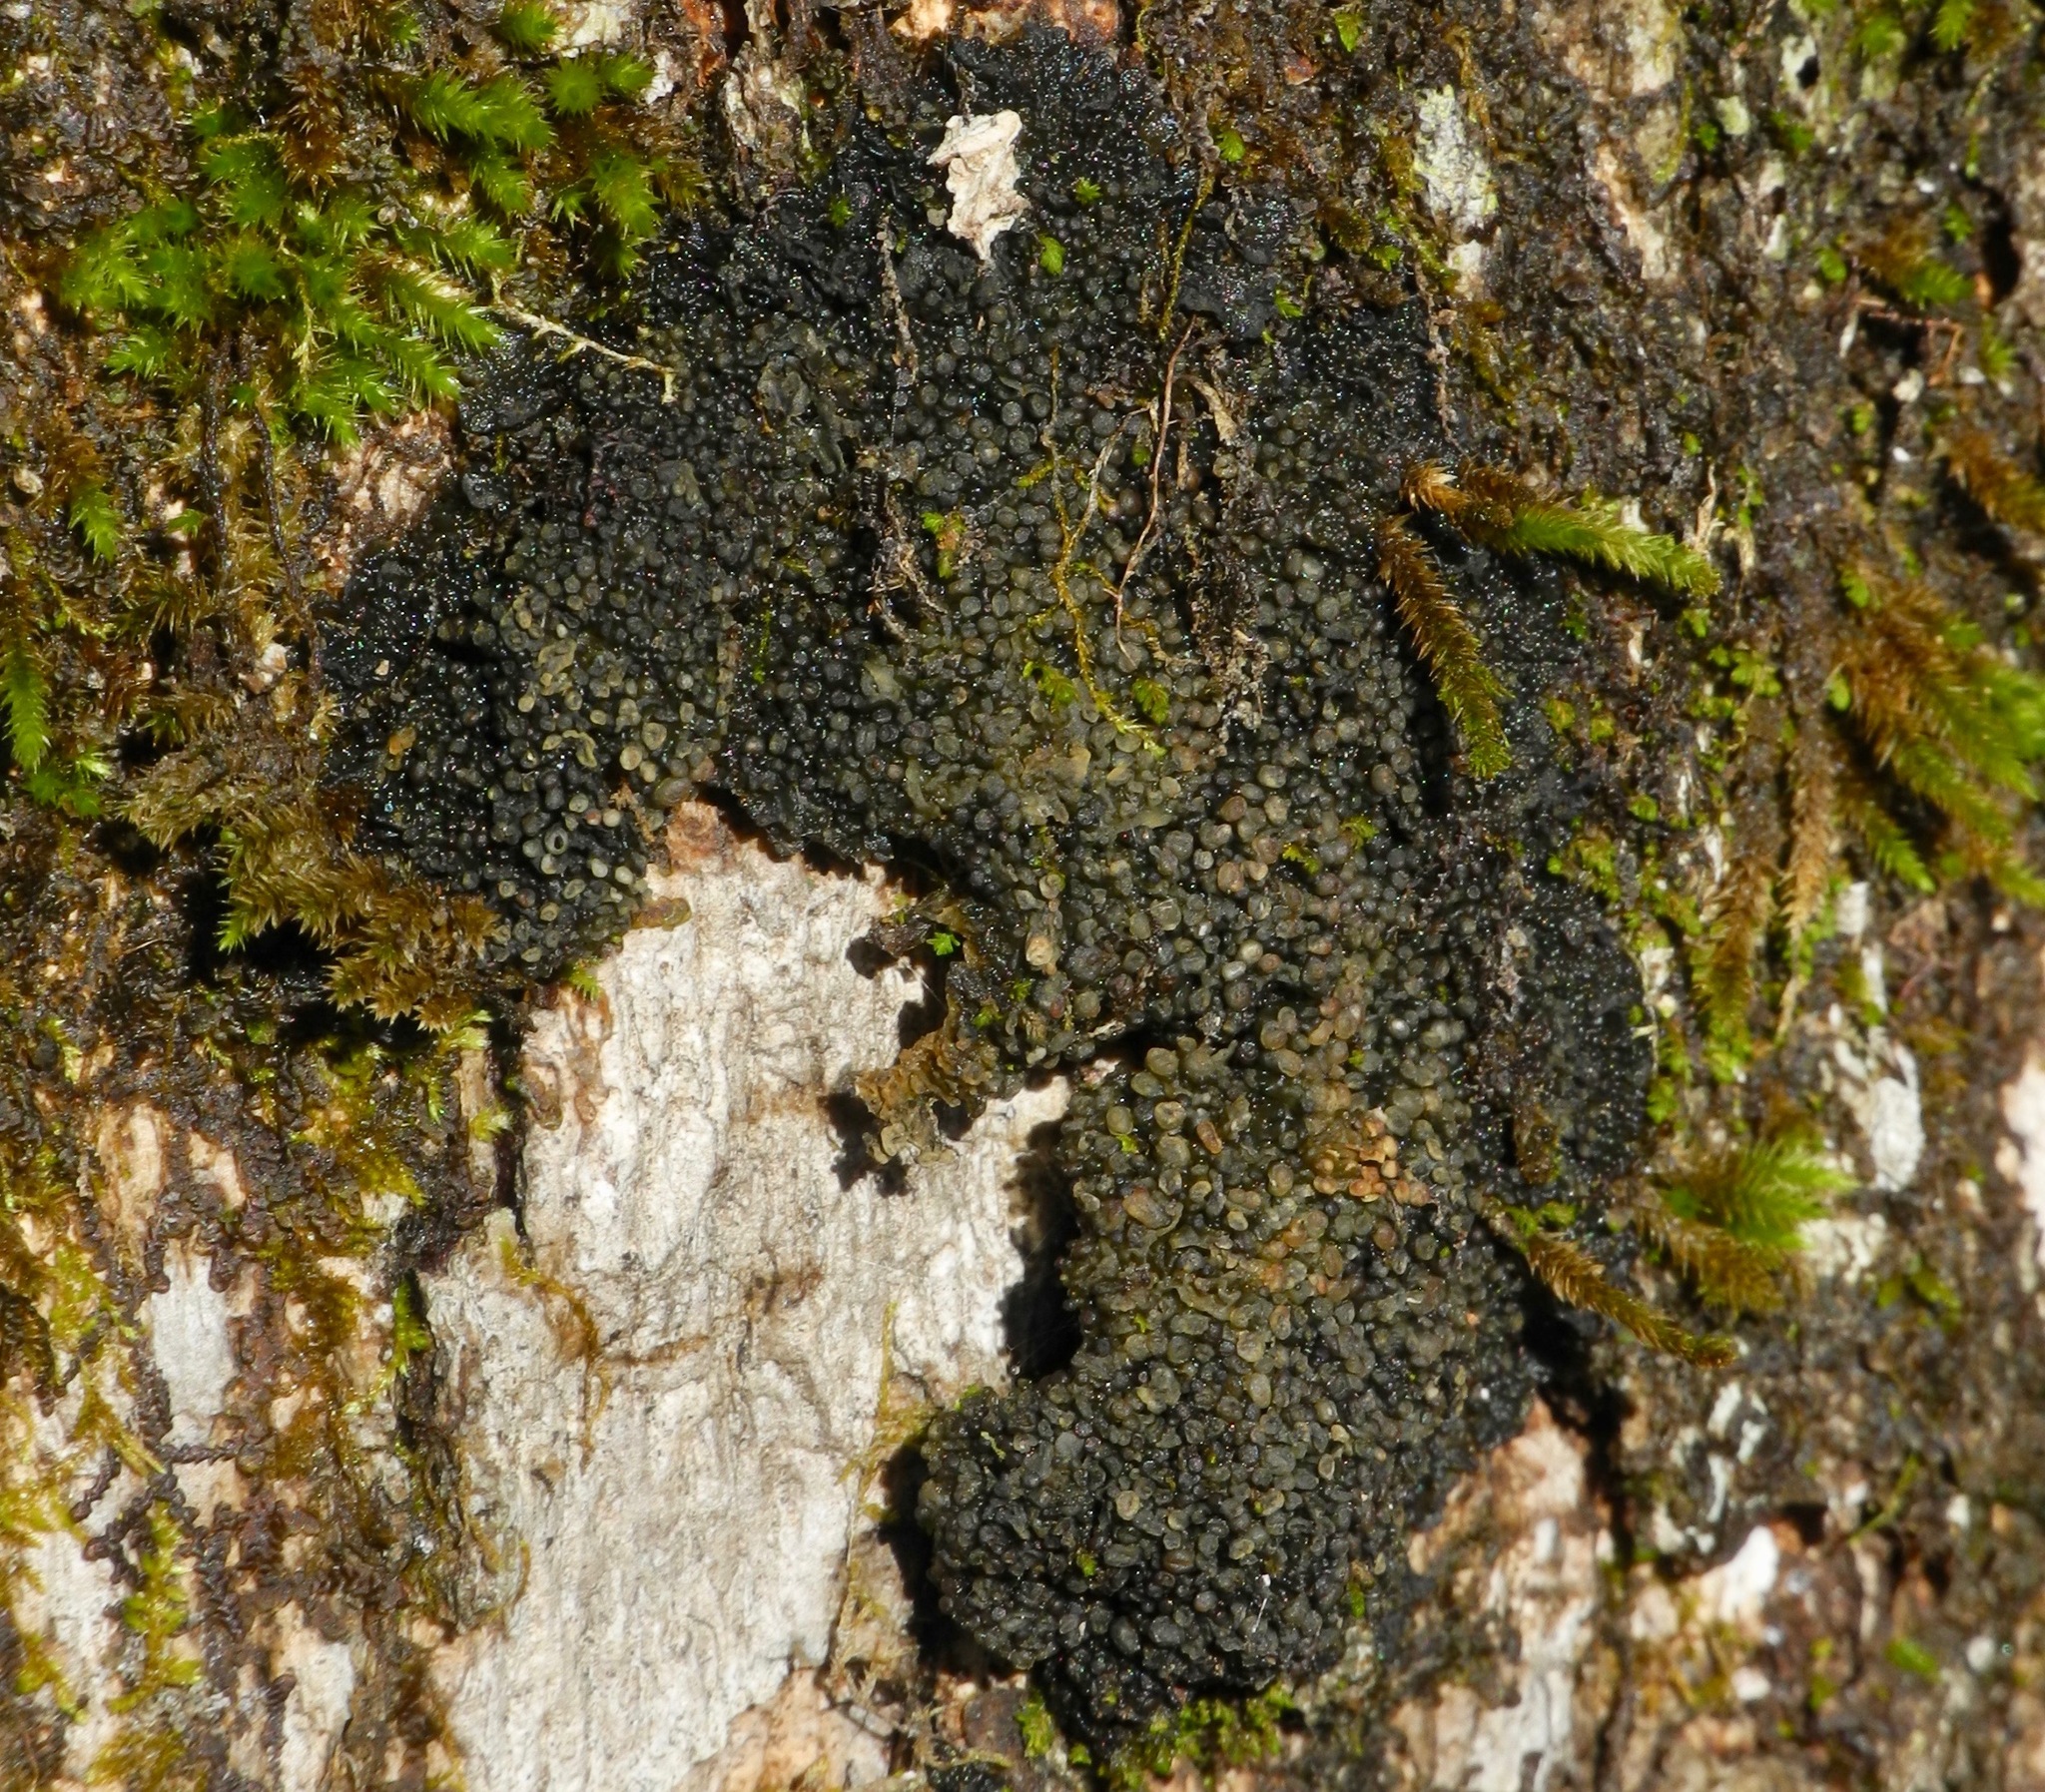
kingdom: Fungi
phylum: Ascomycota
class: Lecanoromycetes
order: Peltigerales
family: Collemataceae
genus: Enchylium
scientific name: Enchylium conglomeratum
